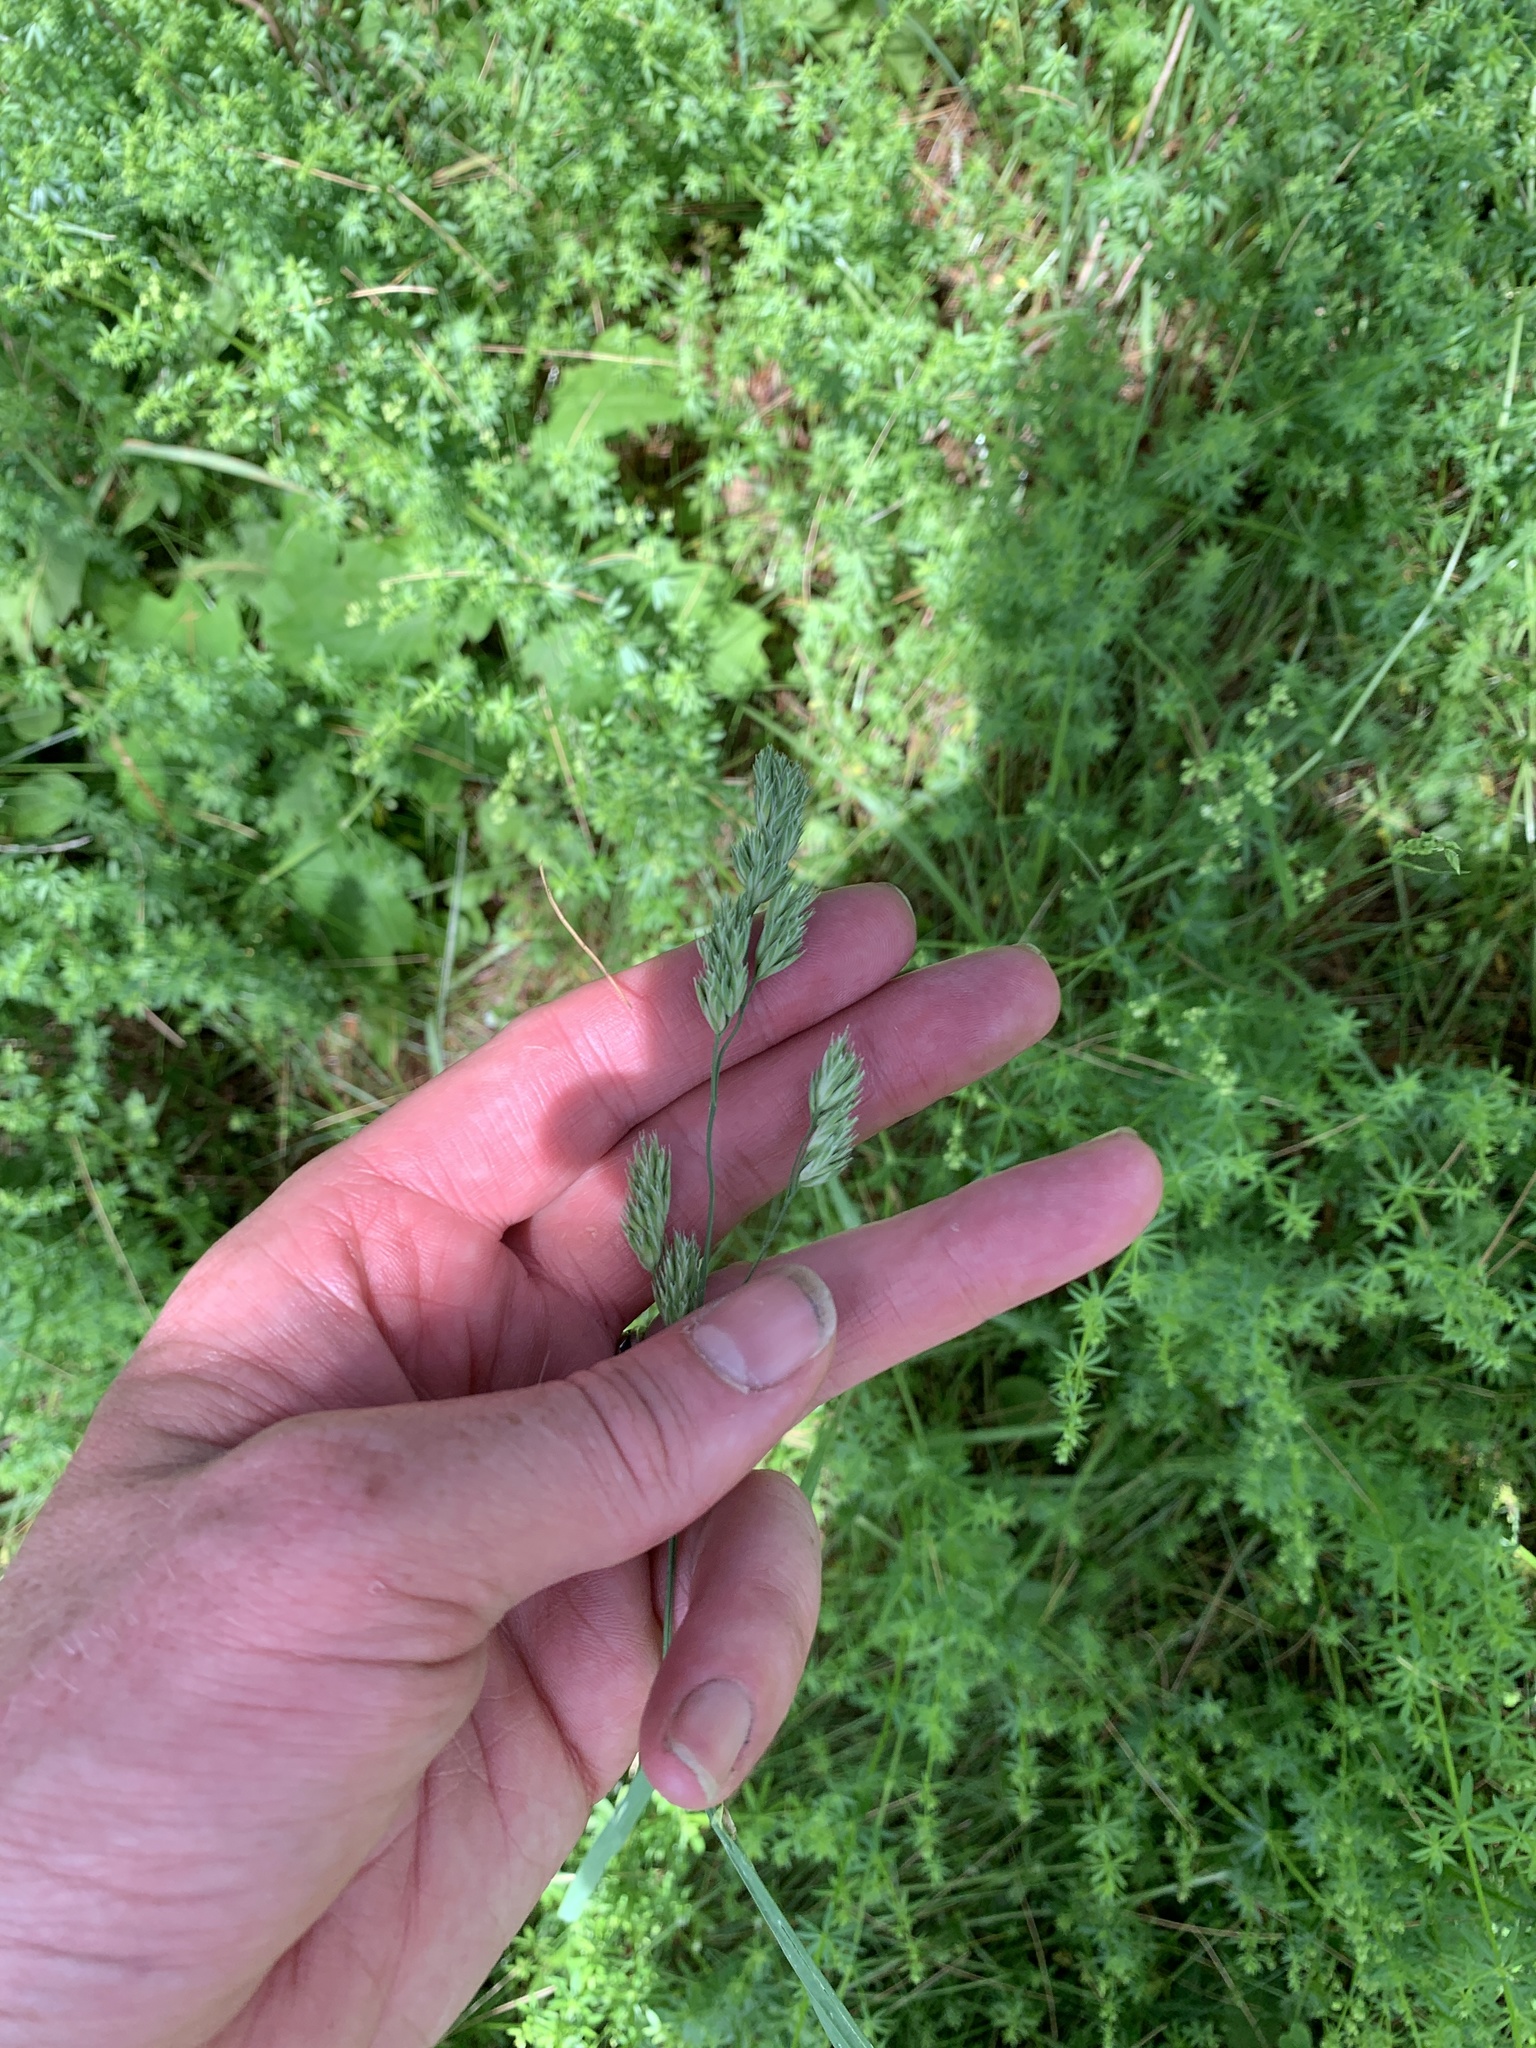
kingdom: Plantae
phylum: Tracheophyta
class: Liliopsida
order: Poales
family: Poaceae
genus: Dactylis
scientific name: Dactylis glomerata
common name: Orchardgrass
